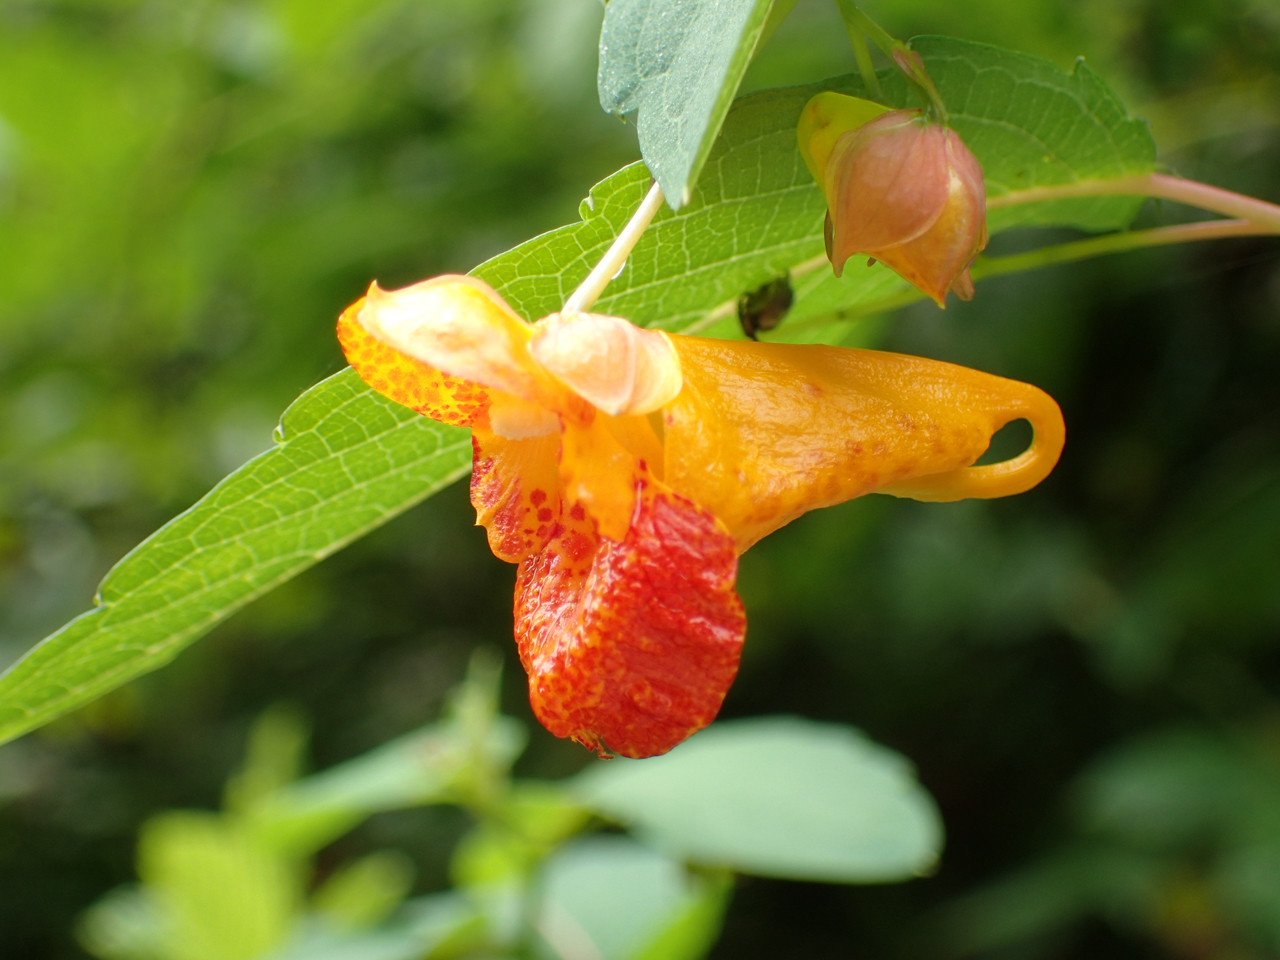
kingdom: Plantae
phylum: Tracheophyta
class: Magnoliopsida
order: Ericales
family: Balsaminaceae
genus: Impatiens
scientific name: Impatiens capensis
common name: Orange balsam
